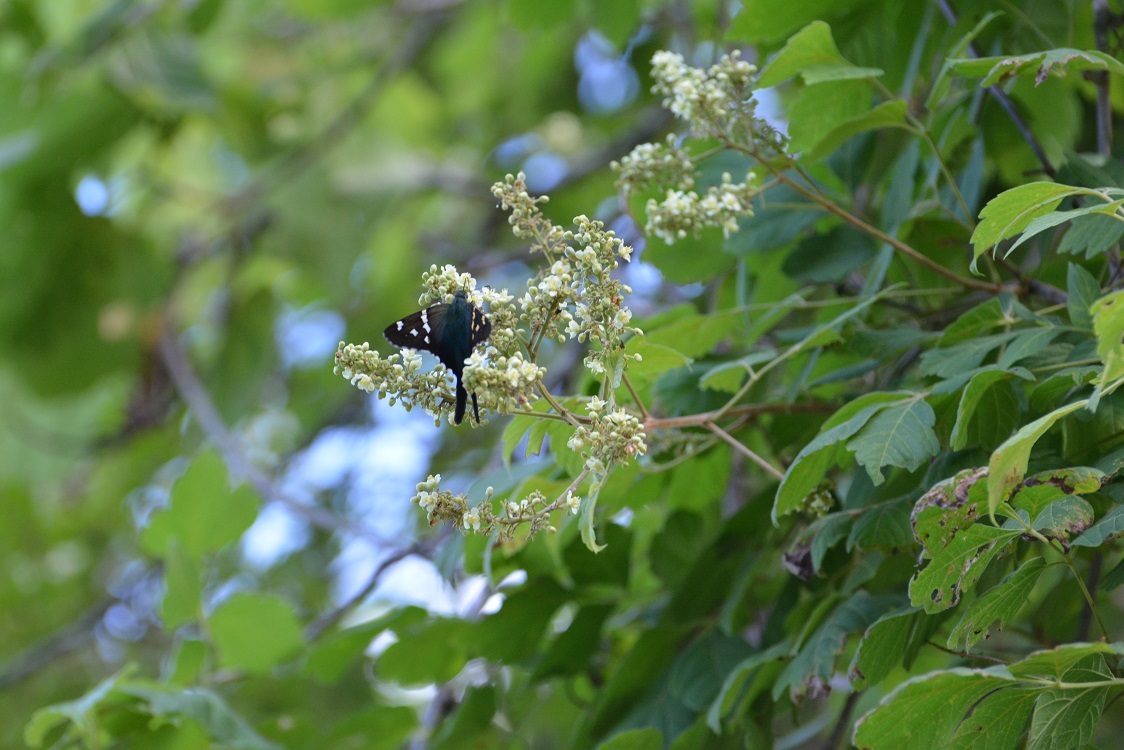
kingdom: Plantae
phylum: Tracheophyta
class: Magnoliopsida
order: Sapindales
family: Sapindaceae
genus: Paullinia
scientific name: Paullinia fuscescens
